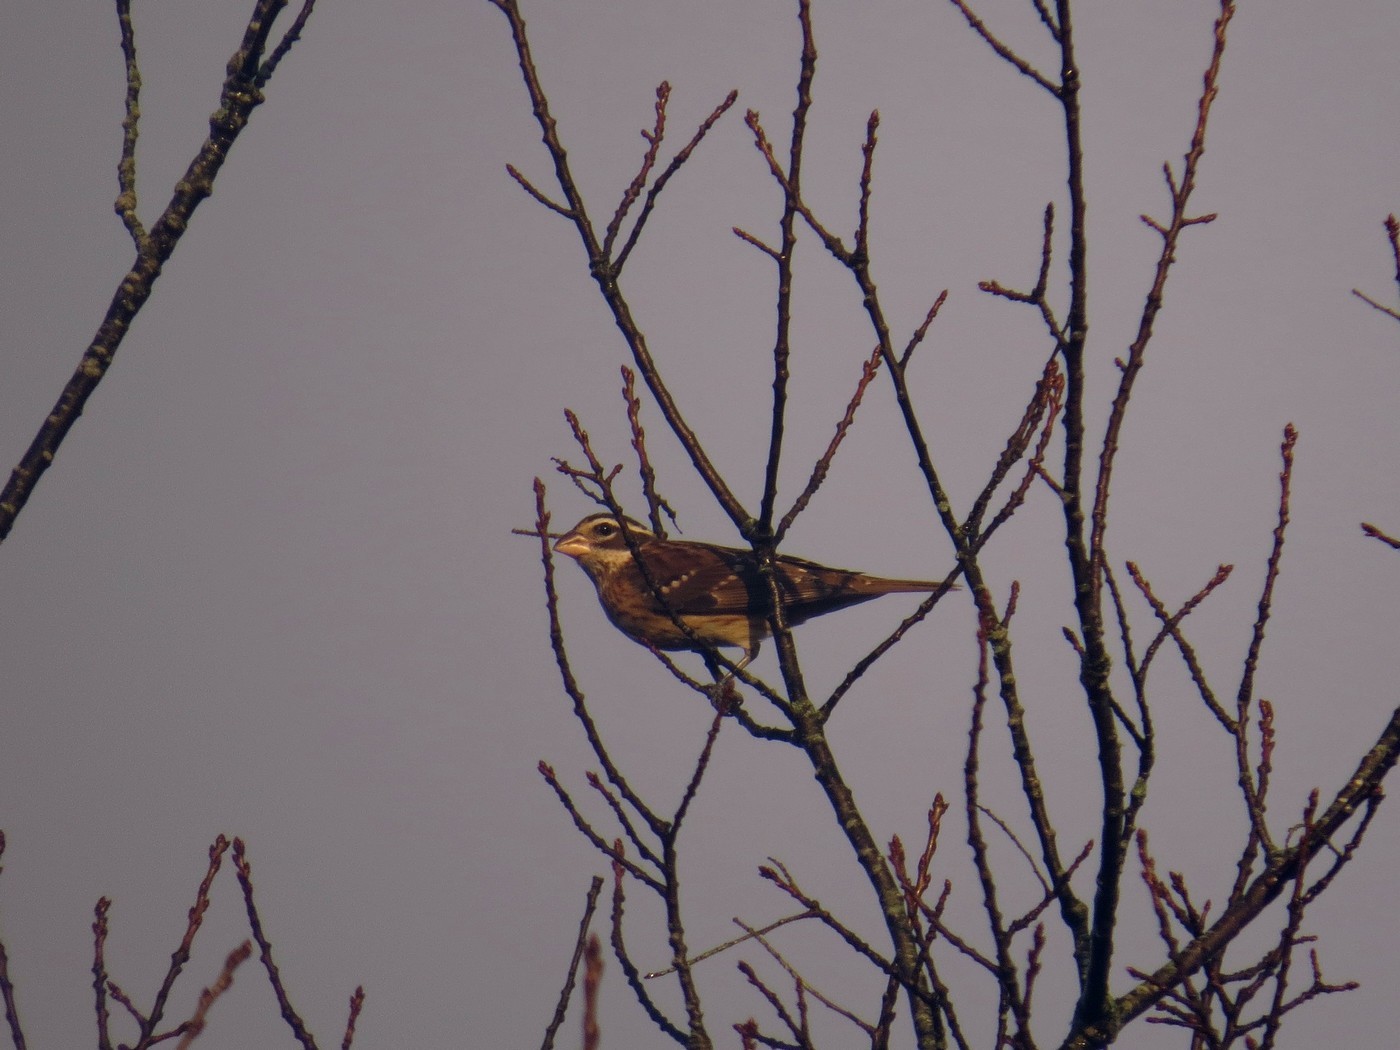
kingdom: Animalia
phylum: Chordata
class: Aves
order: Passeriformes
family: Cardinalidae
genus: Pheucticus
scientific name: Pheucticus ludovicianus
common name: Rose-breasted grosbeak
